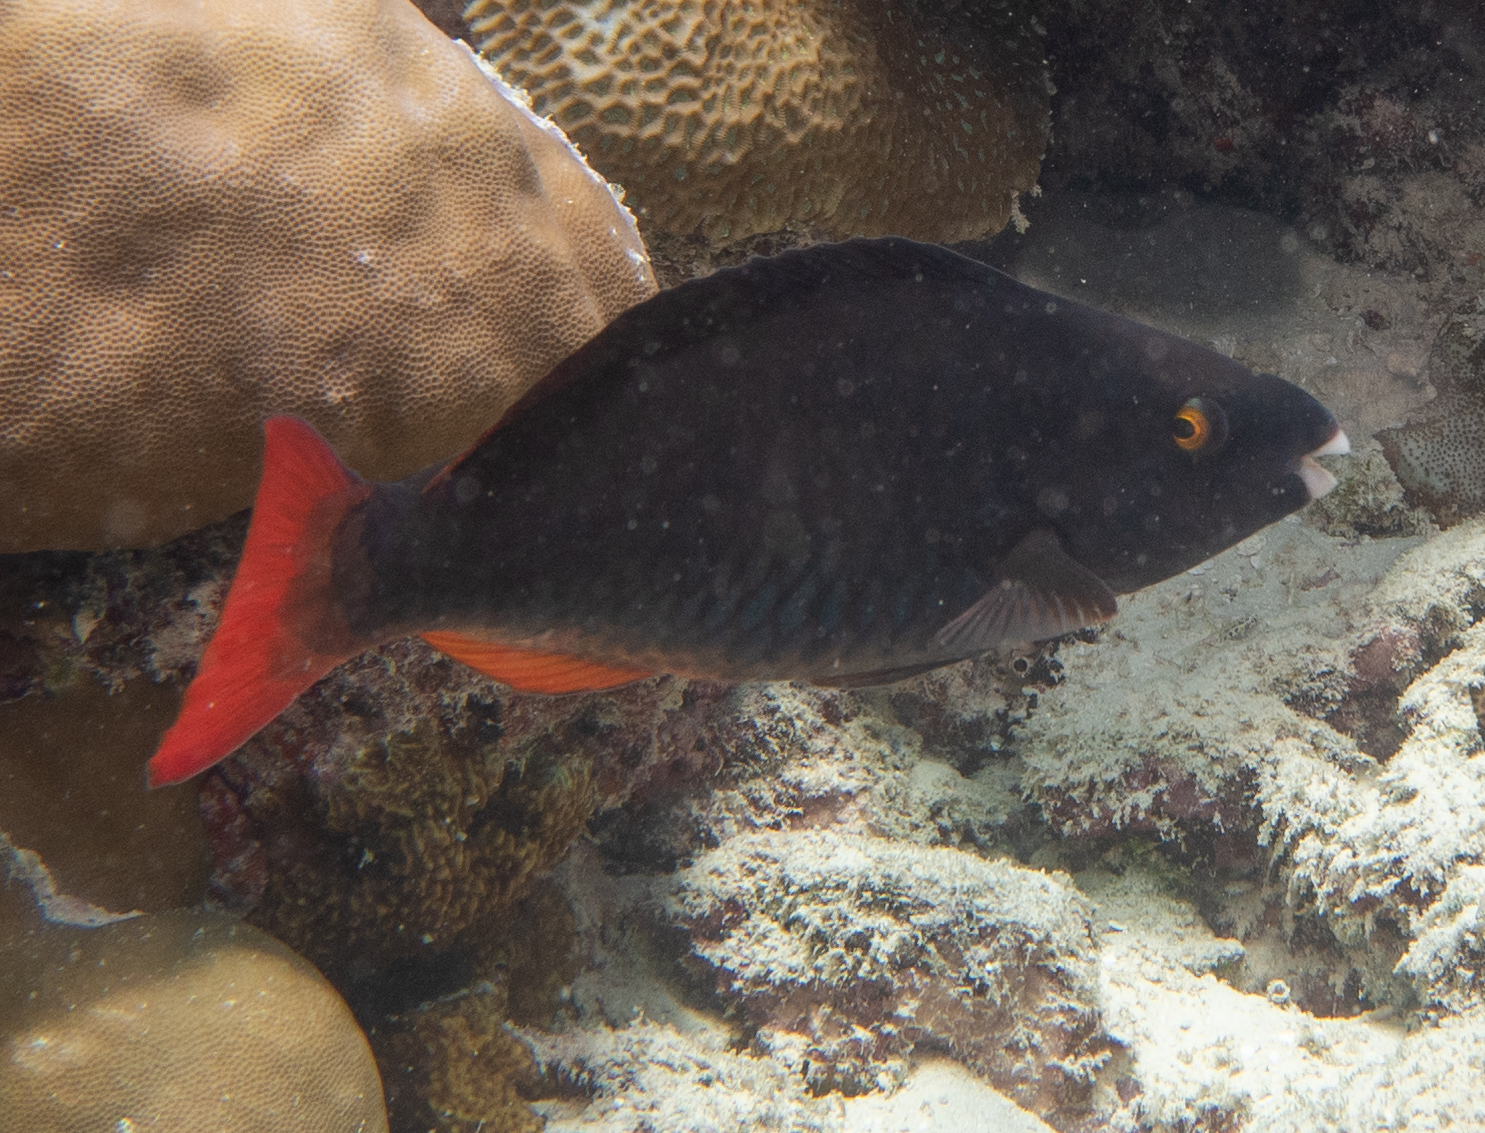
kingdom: Animalia
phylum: Chordata
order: Perciformes
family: Scaridae
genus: Scarus
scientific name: Scarus tricolor
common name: Tricolour parrotfish
